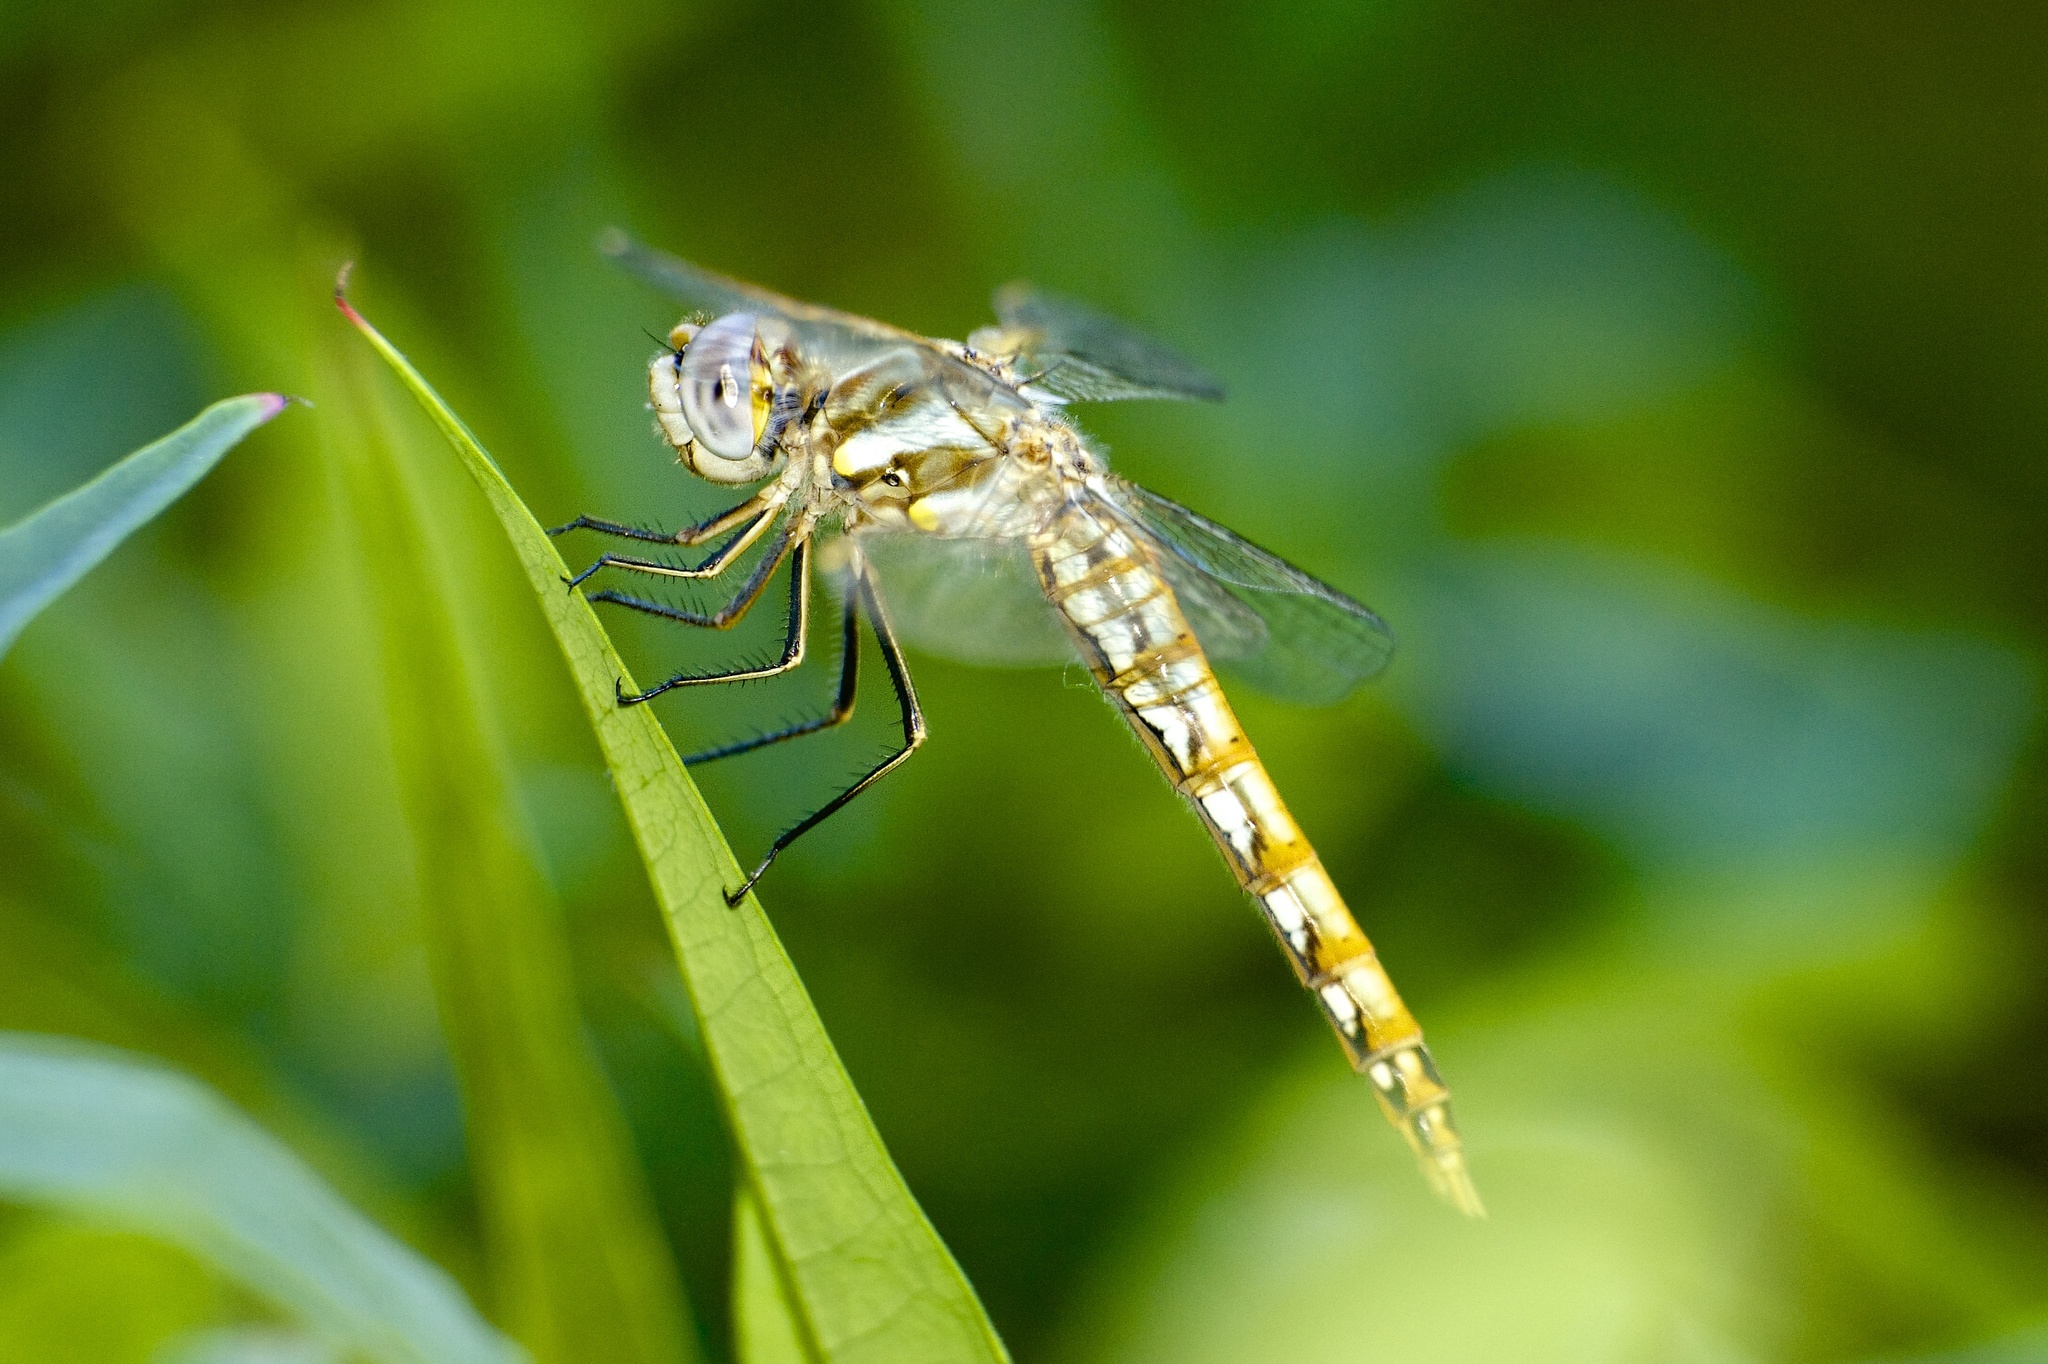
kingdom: Animalia
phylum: Arthropoda
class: Insecta
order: Odonata
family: Libellulidae
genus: Sympetrum
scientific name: Sympetrum corruptum
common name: Variegated meadowhawk
